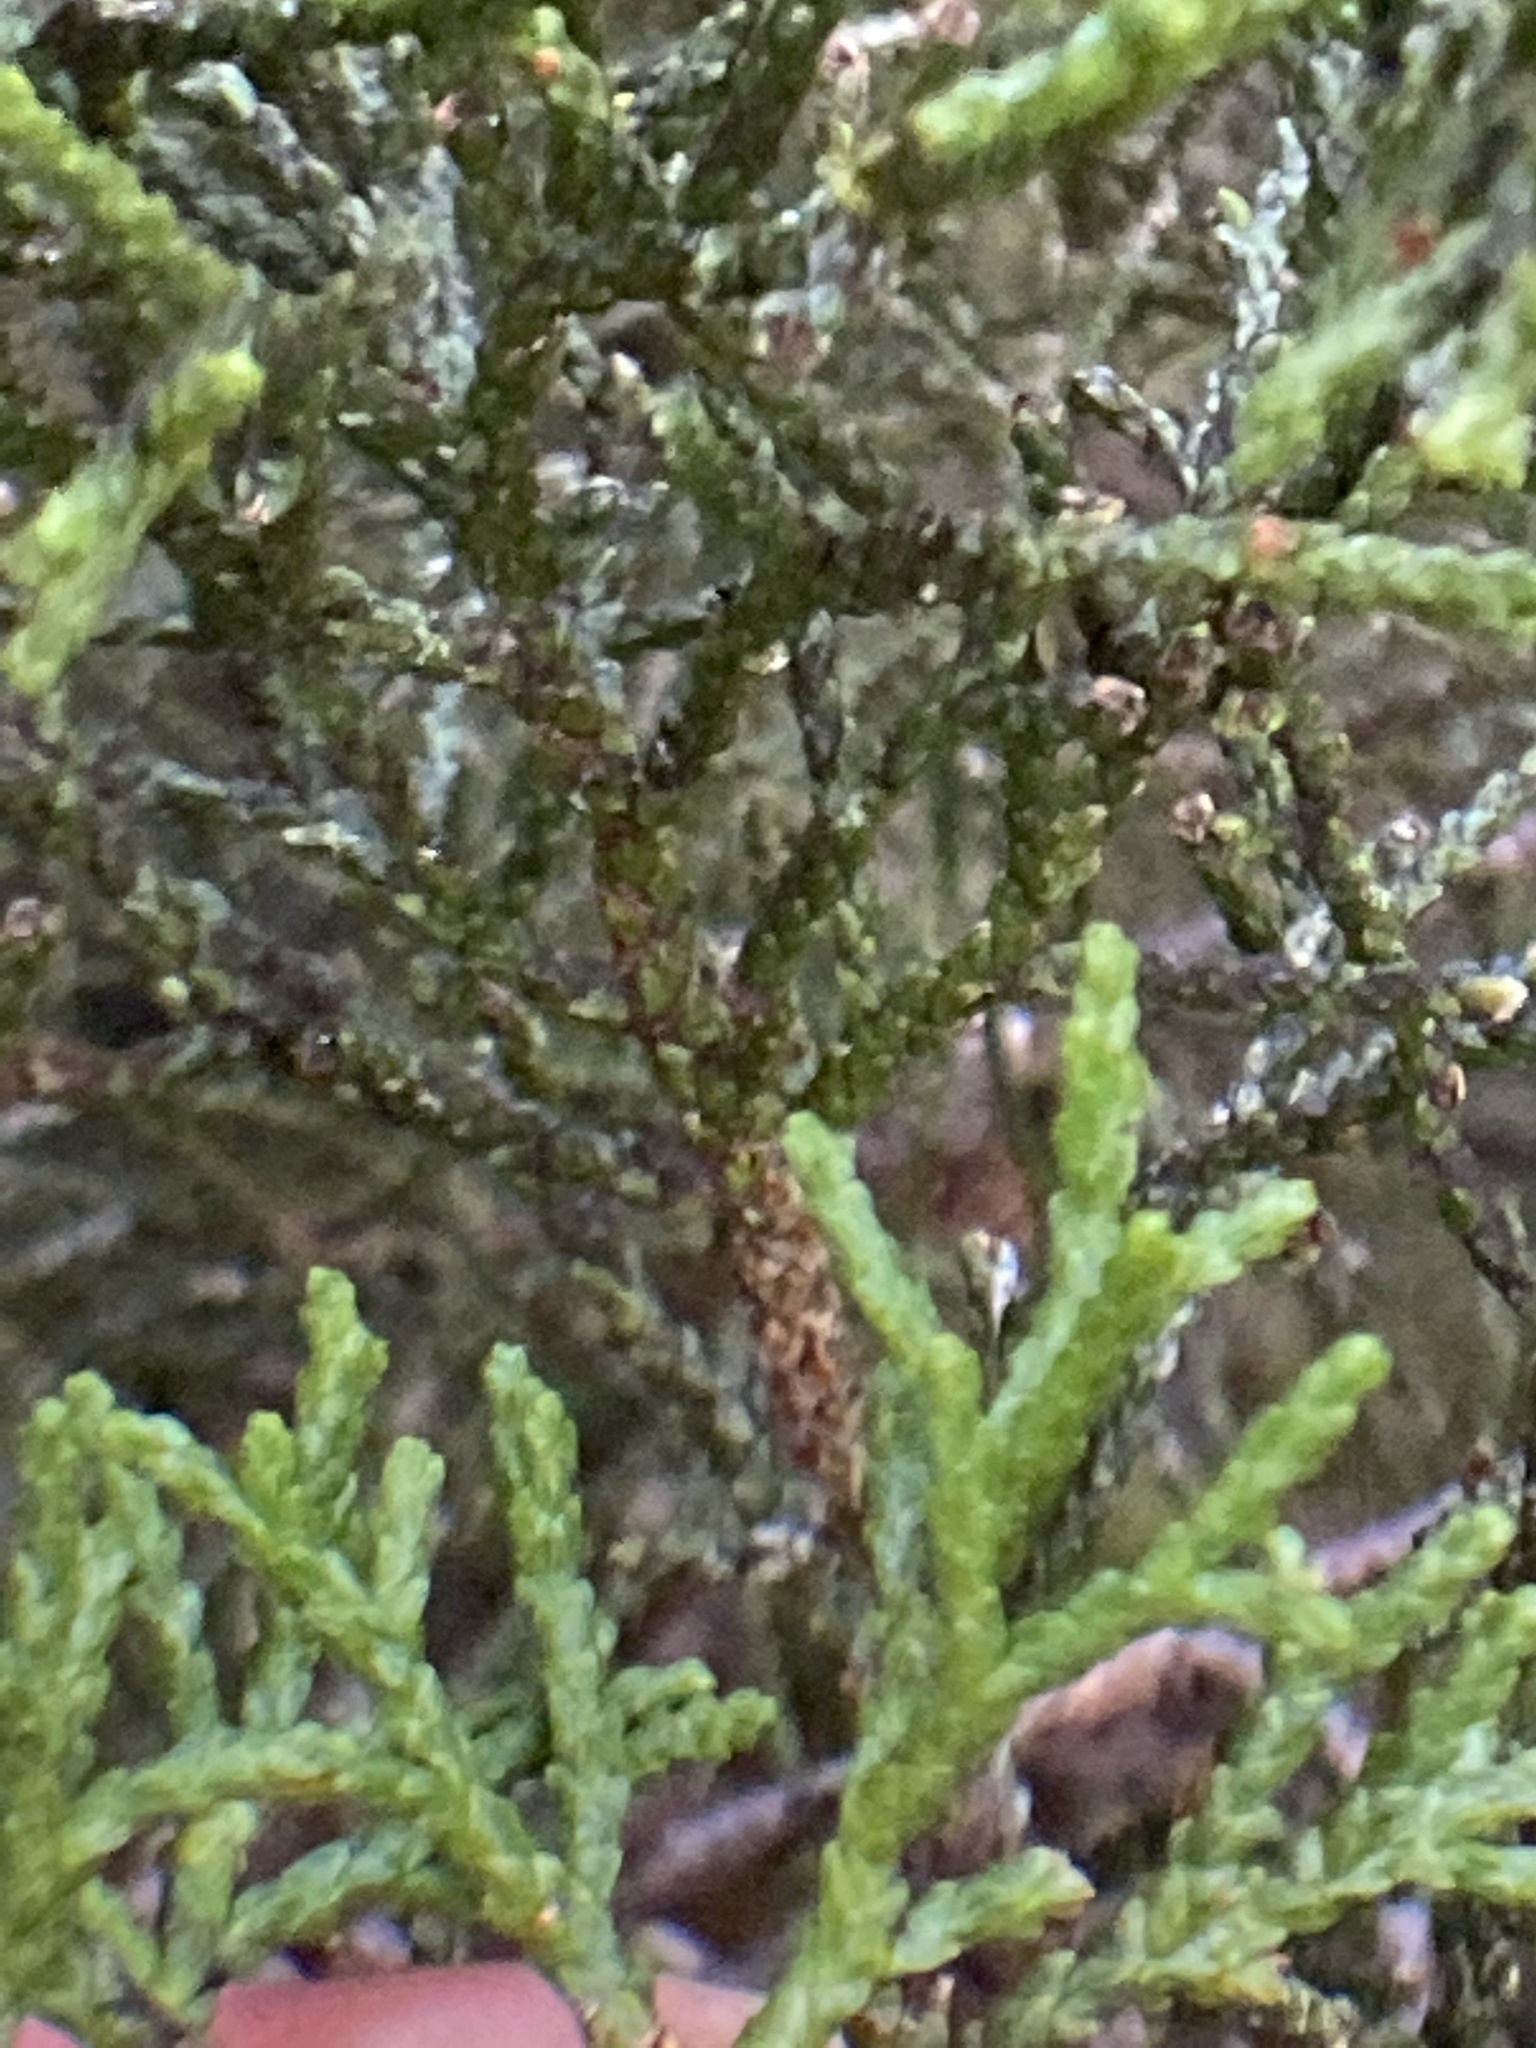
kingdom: Plantae
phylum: Tracheophyta
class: Pinopsida
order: Pinales
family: Podocarpaceae
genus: Halocarpus
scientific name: Halocarpus biformis
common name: Alpine tarwood
